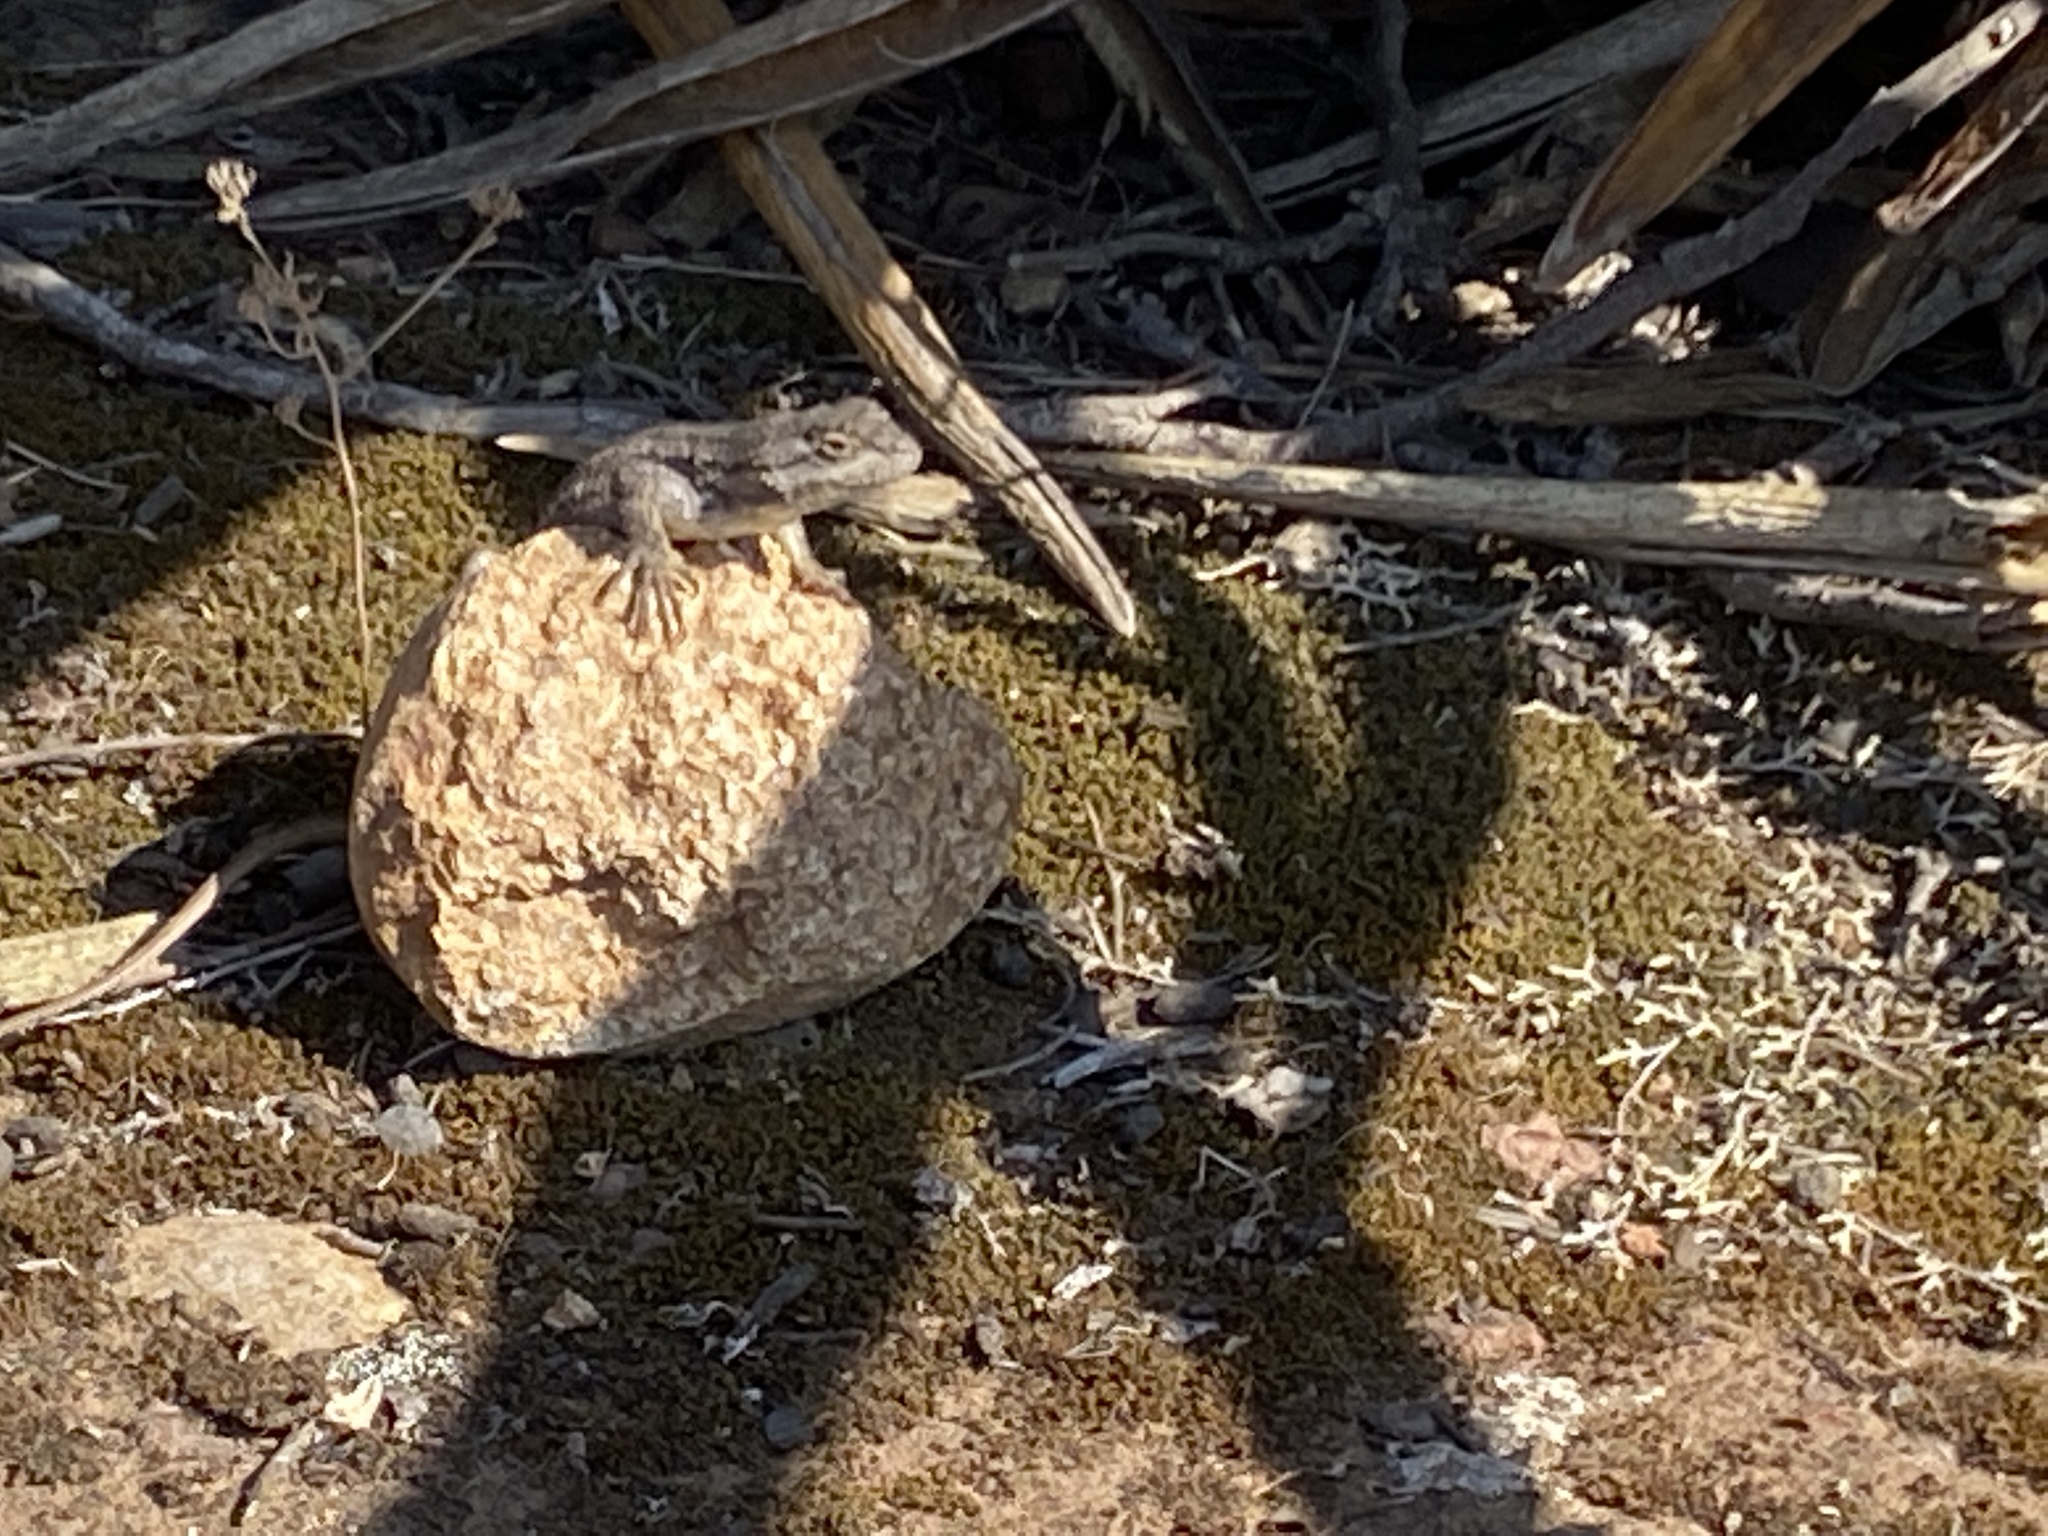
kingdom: Animalia
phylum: Chordata
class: Squamata
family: Phrynosomatidae
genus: Sceloporus
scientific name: Sceloporus occidentalis
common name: Western fence lizard
